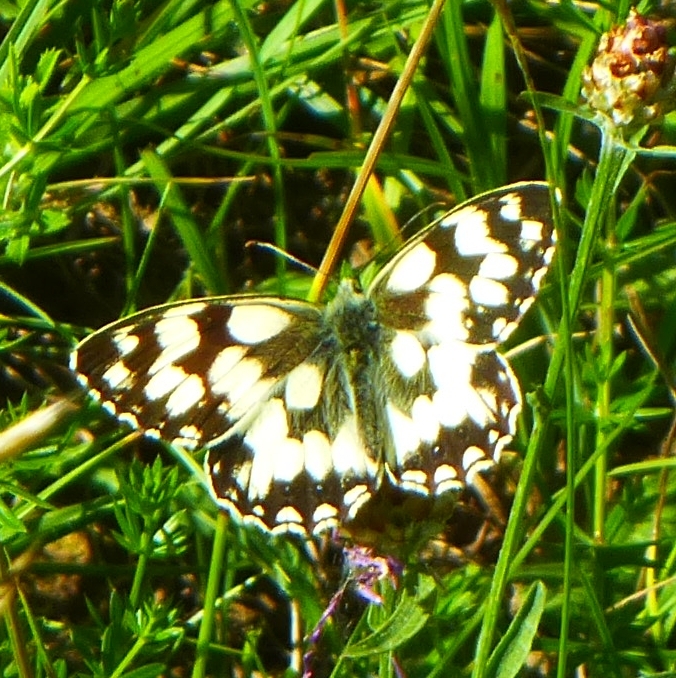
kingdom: Animalia
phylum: Arthropoda
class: Insecta
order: Lepidoptera
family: Nymphalidae
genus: Melanargia
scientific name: Melanargia galathea
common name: Marbled white
